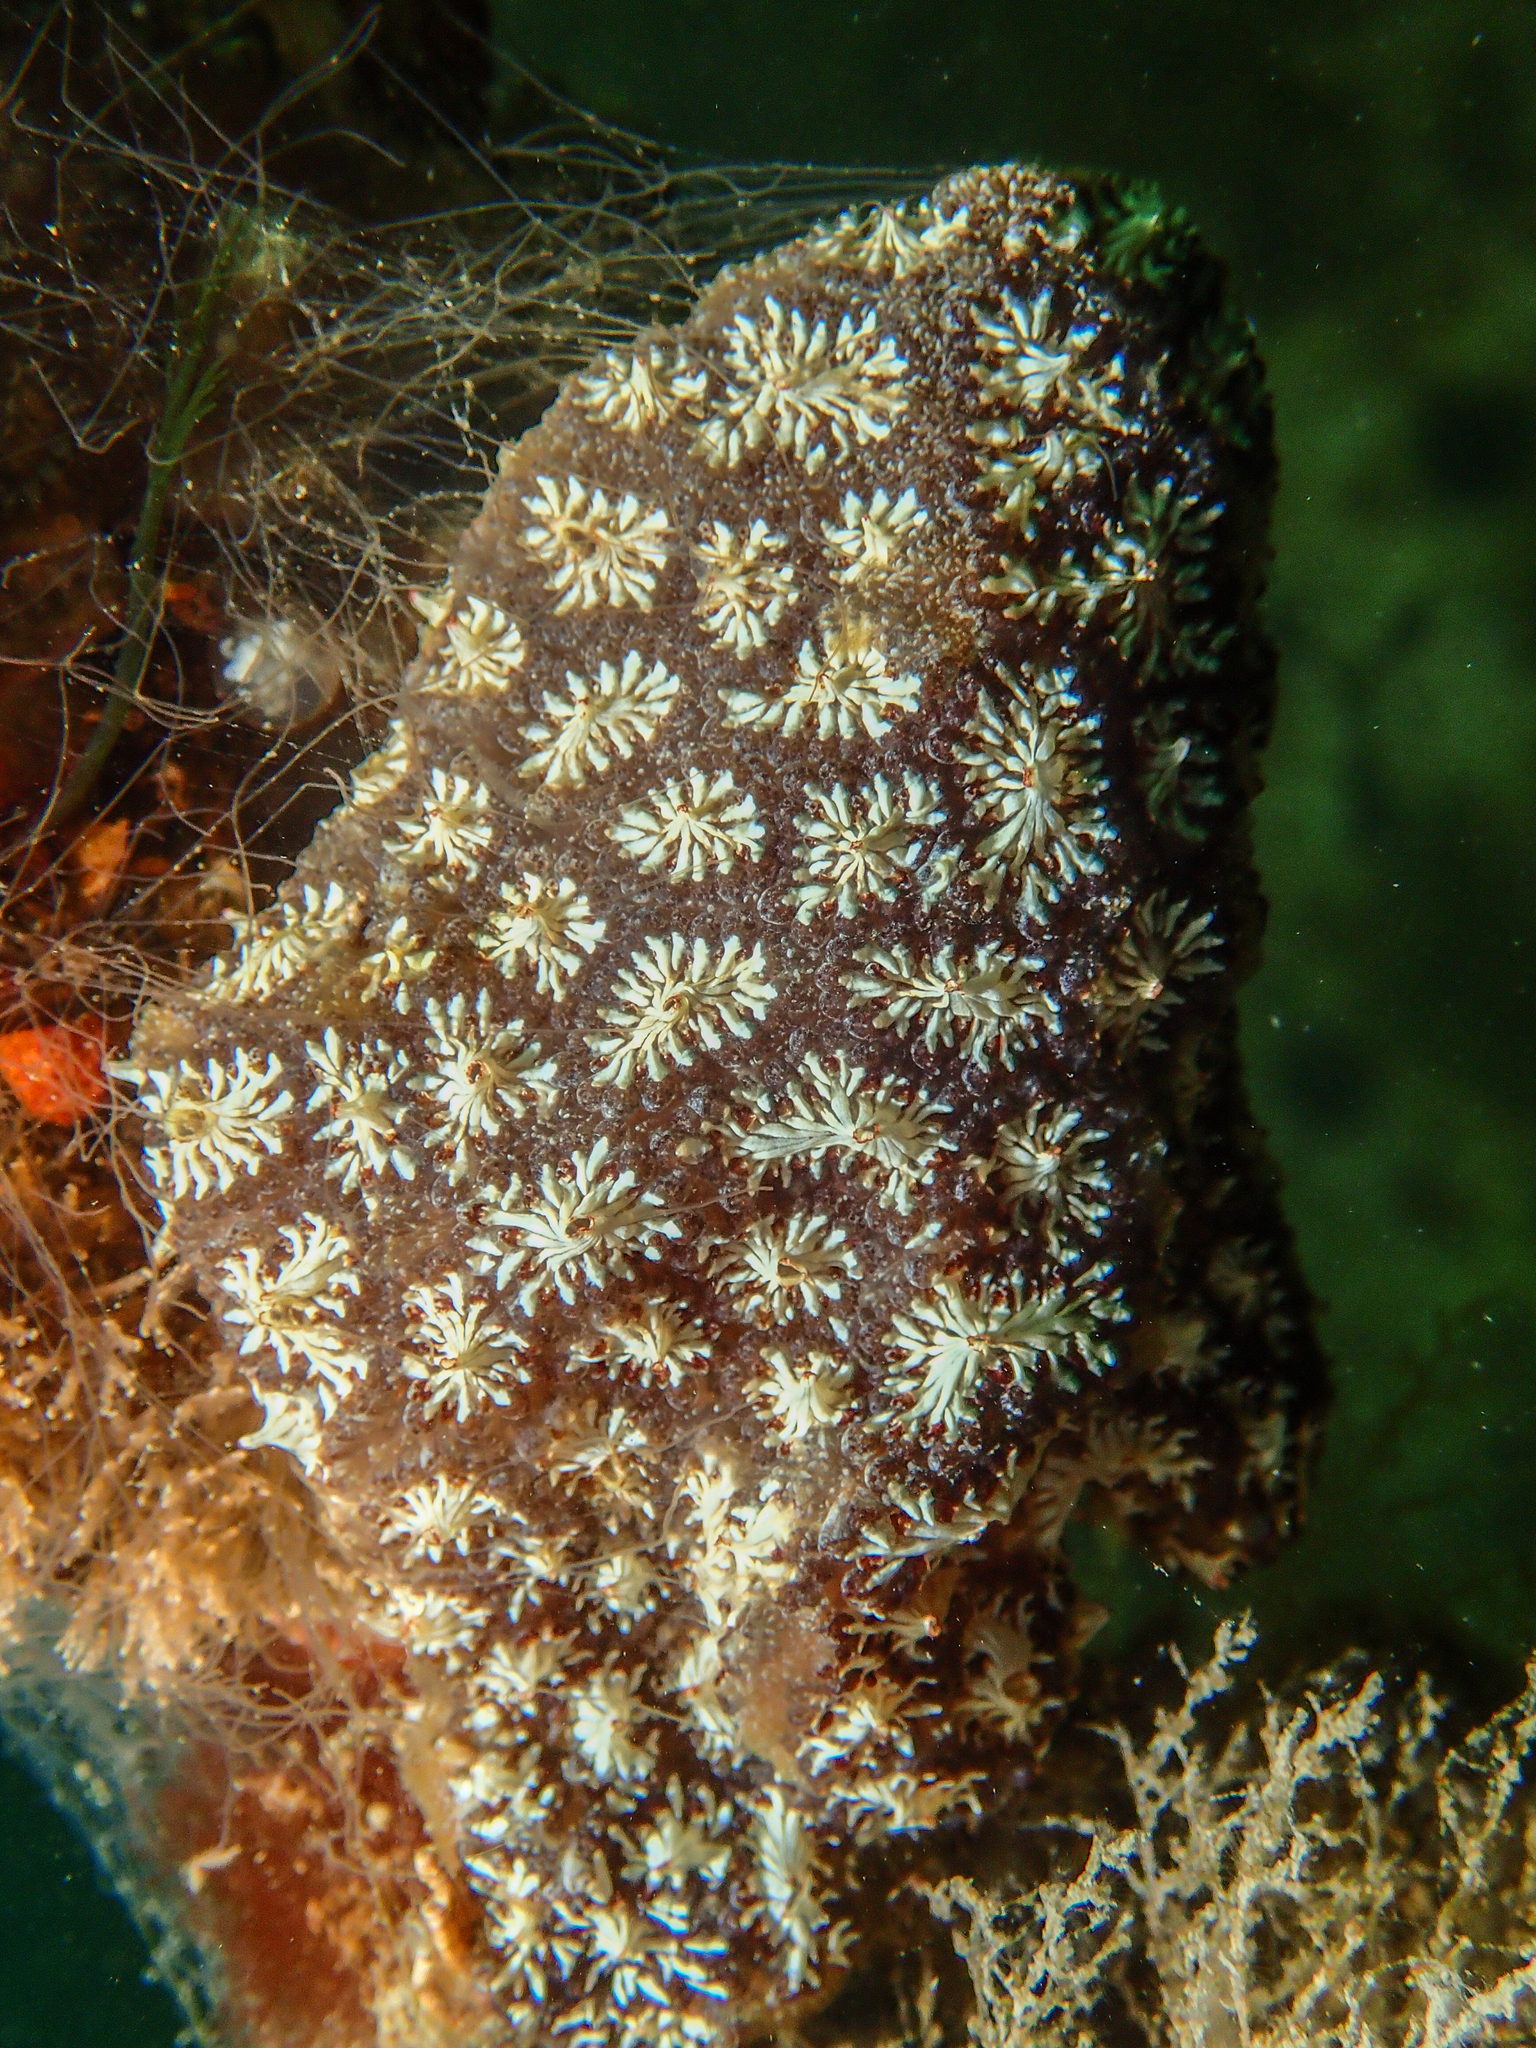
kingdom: Animalia
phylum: Chordata
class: Ascidiacea
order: Stolidobranchia
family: Styelidae
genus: Botryllus
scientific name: Botryllus schlosseri
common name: Golden star tunicate
